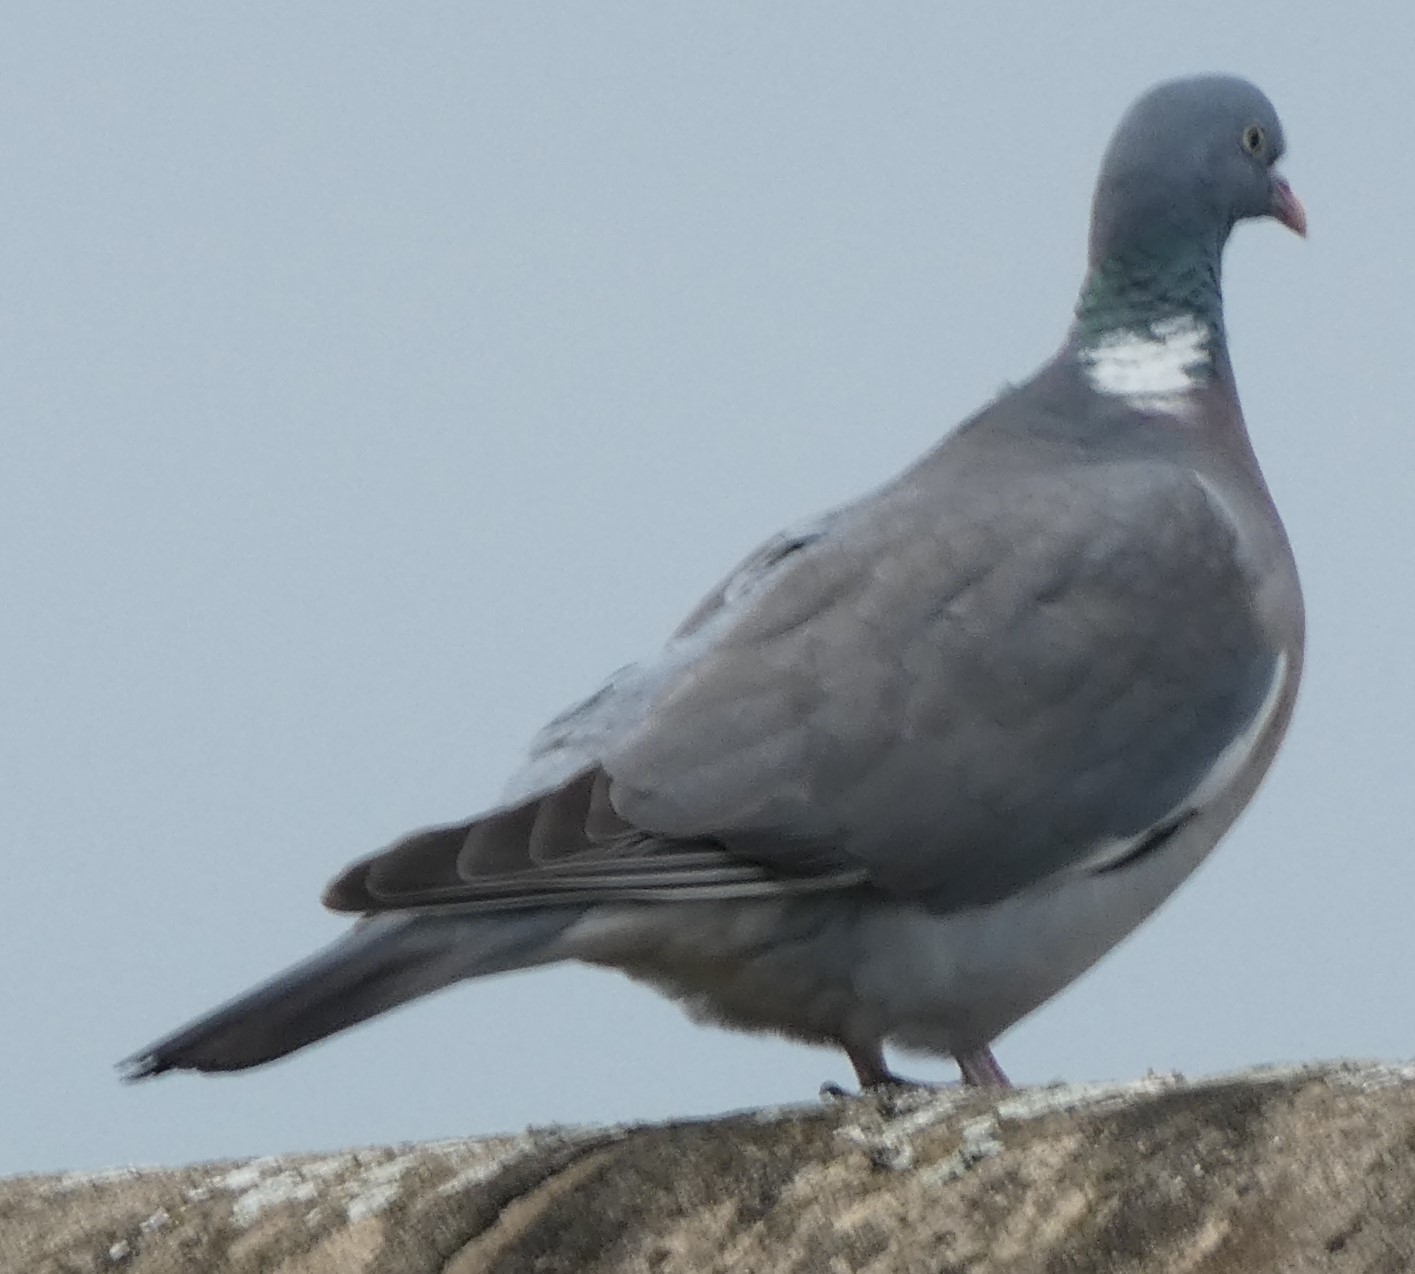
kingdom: Animalia
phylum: Chordata
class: Aves
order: Columbiformes
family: Columbidae
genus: Columba
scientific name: Columba palumbus
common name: Common wood pigeon
